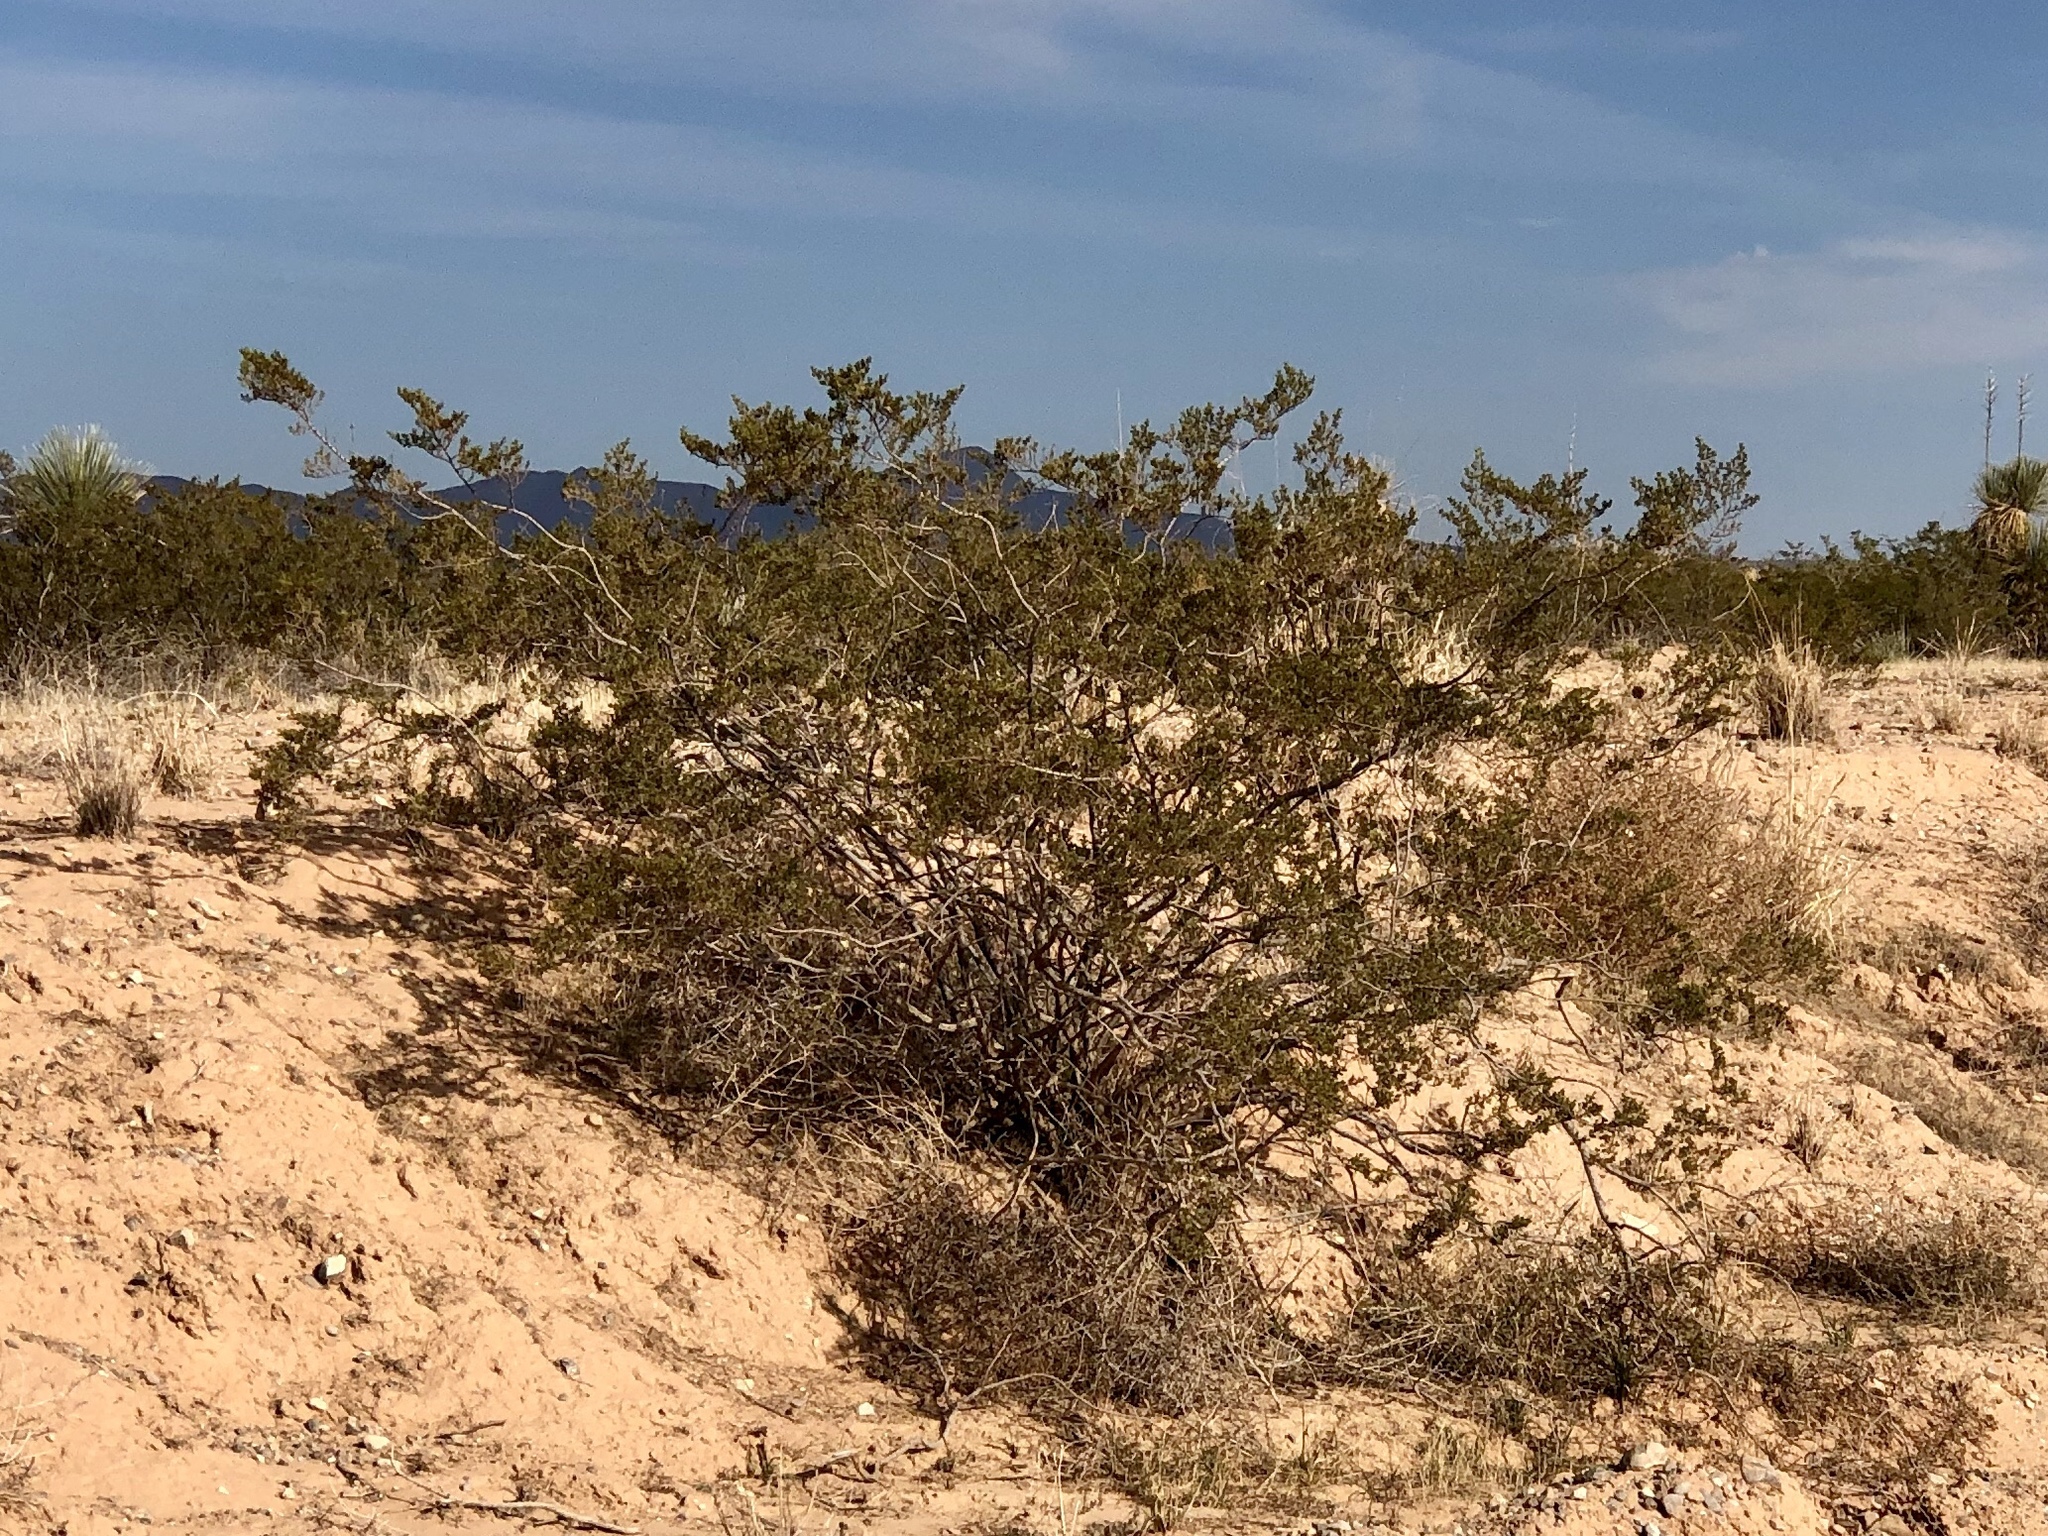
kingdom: Plantae
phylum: Tracheophyta
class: Magnoliopsida
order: Zygophyllales
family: Zygophyllaceae
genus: Larrea
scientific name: Larrea tridentata
